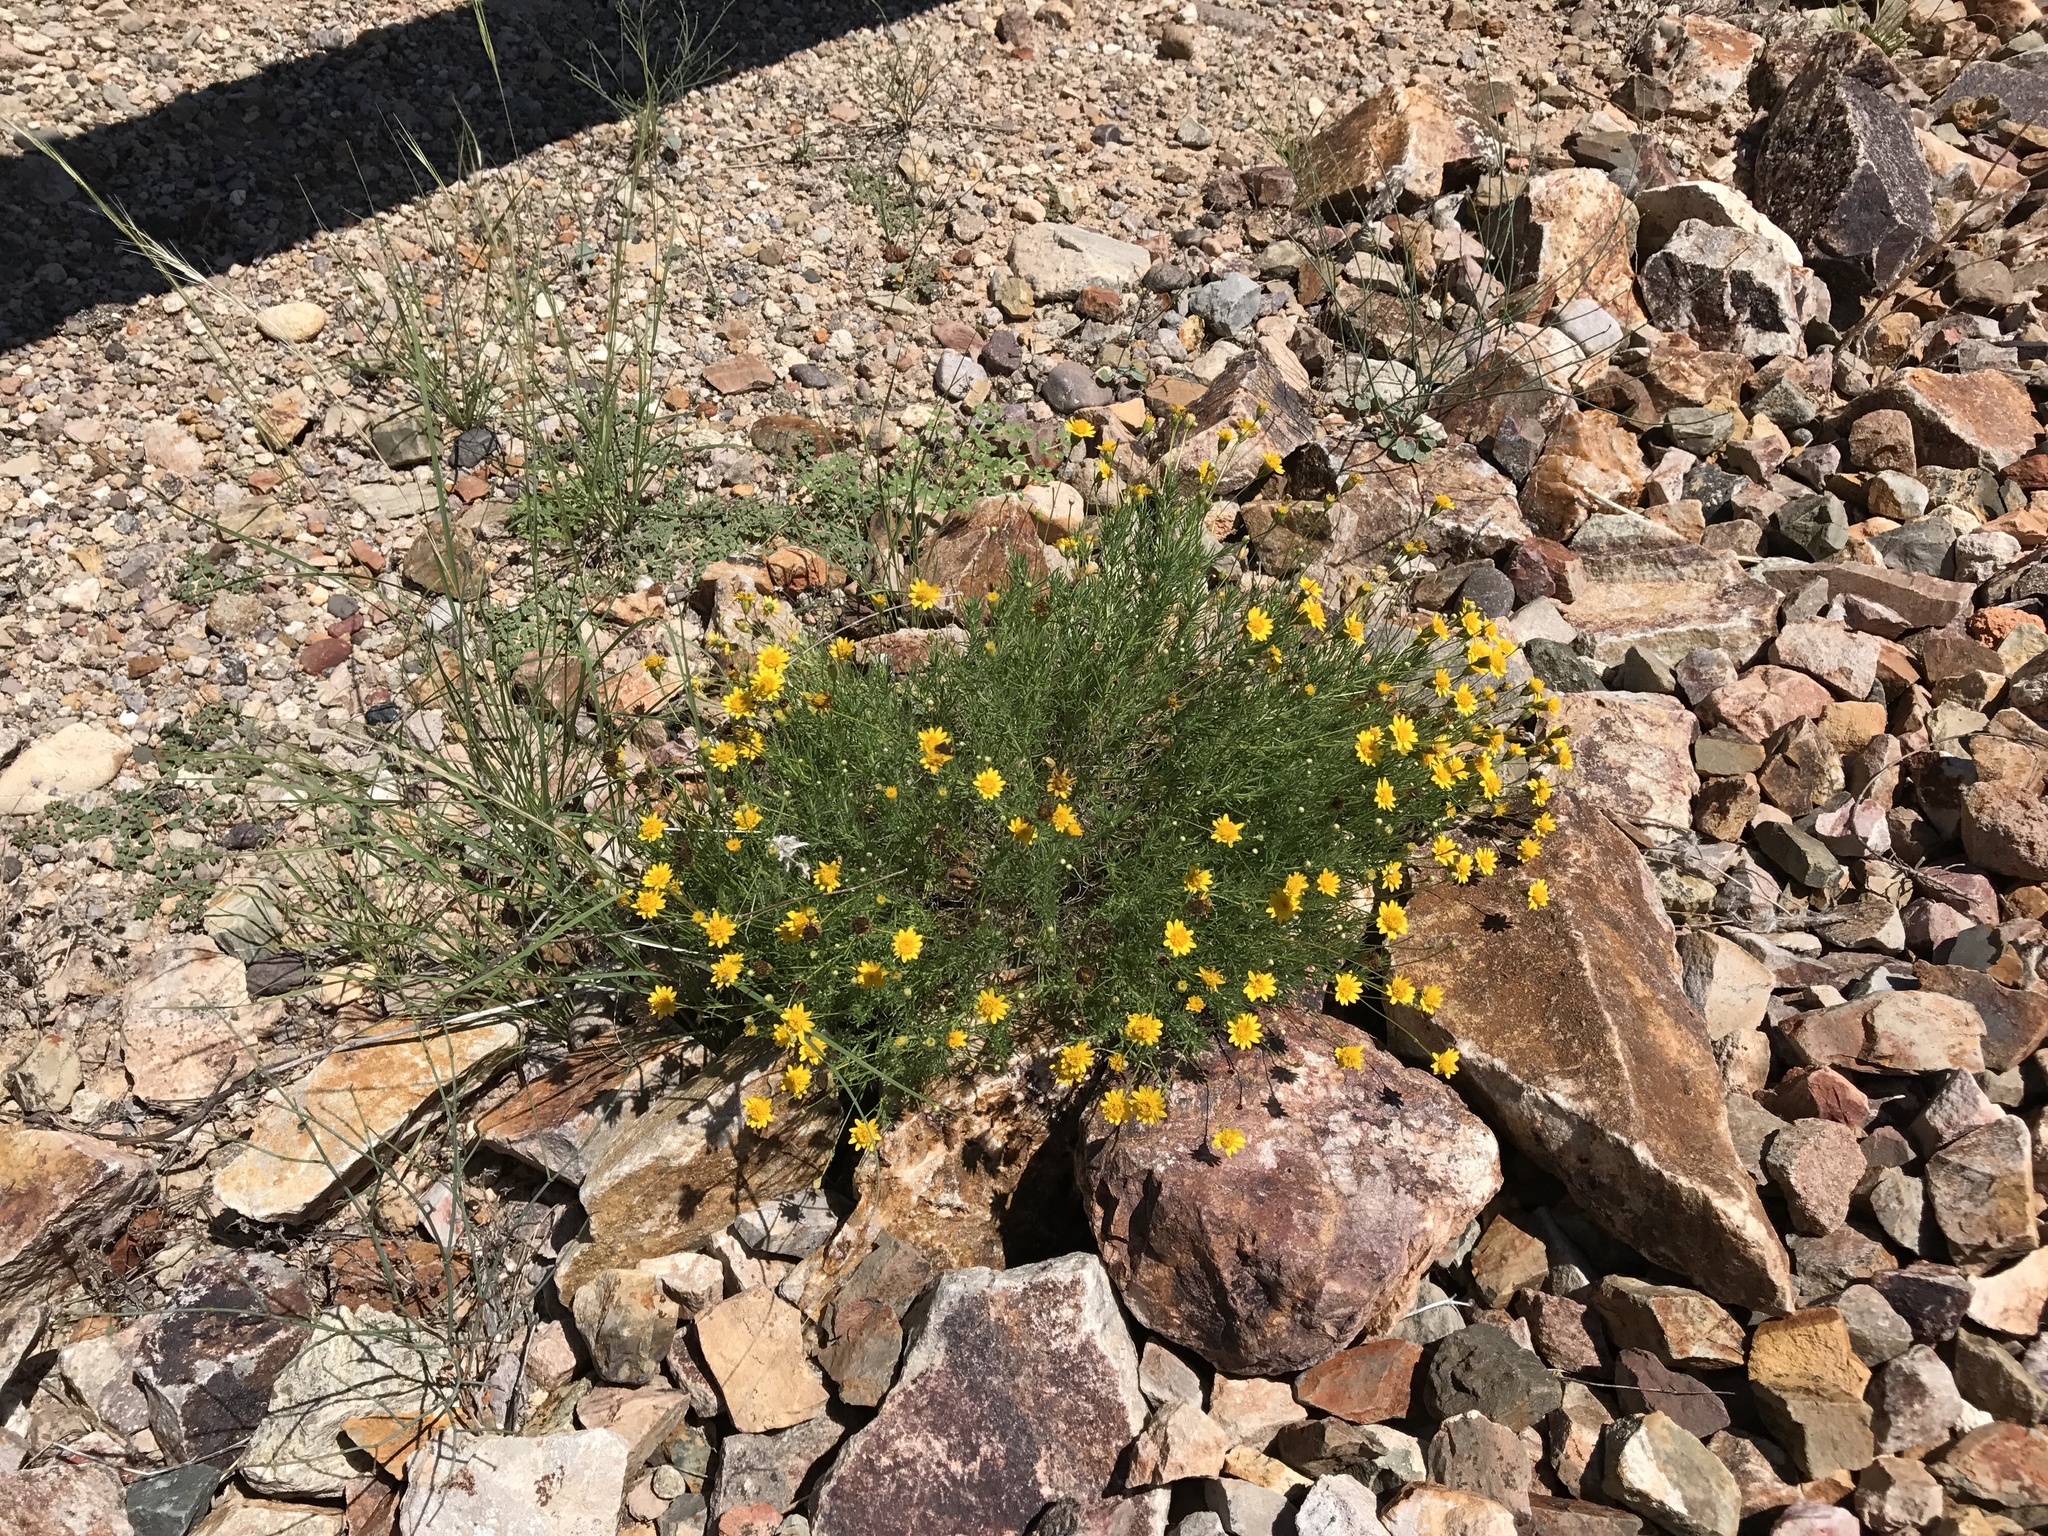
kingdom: Plantae
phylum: Tracheophyta
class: Magnoliopsida
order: Asterales
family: Asteraceae
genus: Thymophylla
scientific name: Thymophylla pentachaeta
